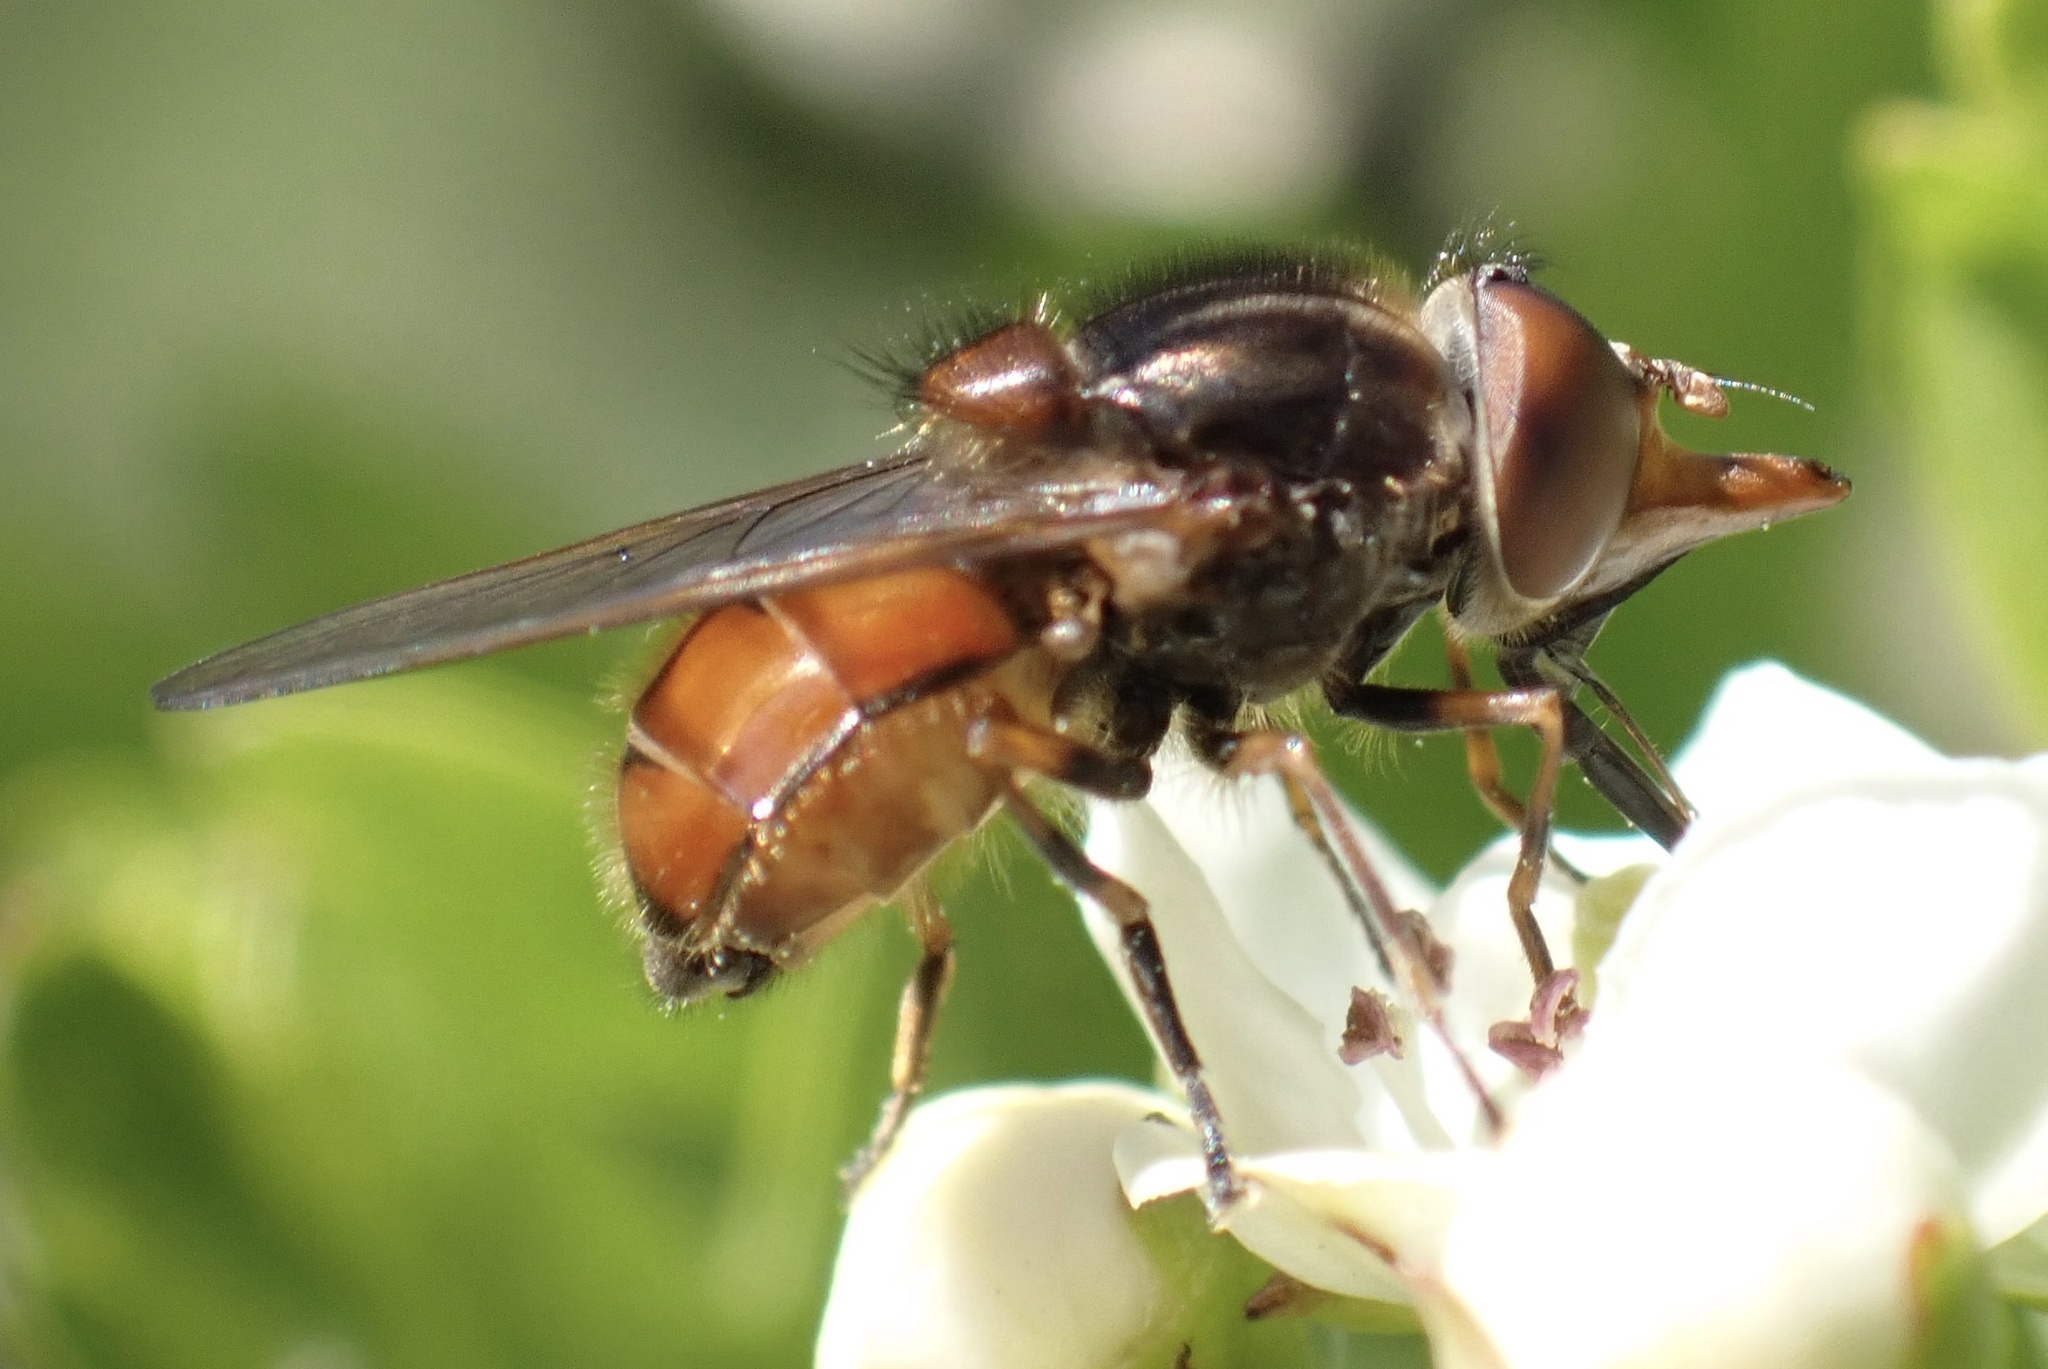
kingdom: Animalia
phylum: Arthropoda
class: Insecta
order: Diptera
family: Syrphidae
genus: Rhingia
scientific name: Rhingia campestris
